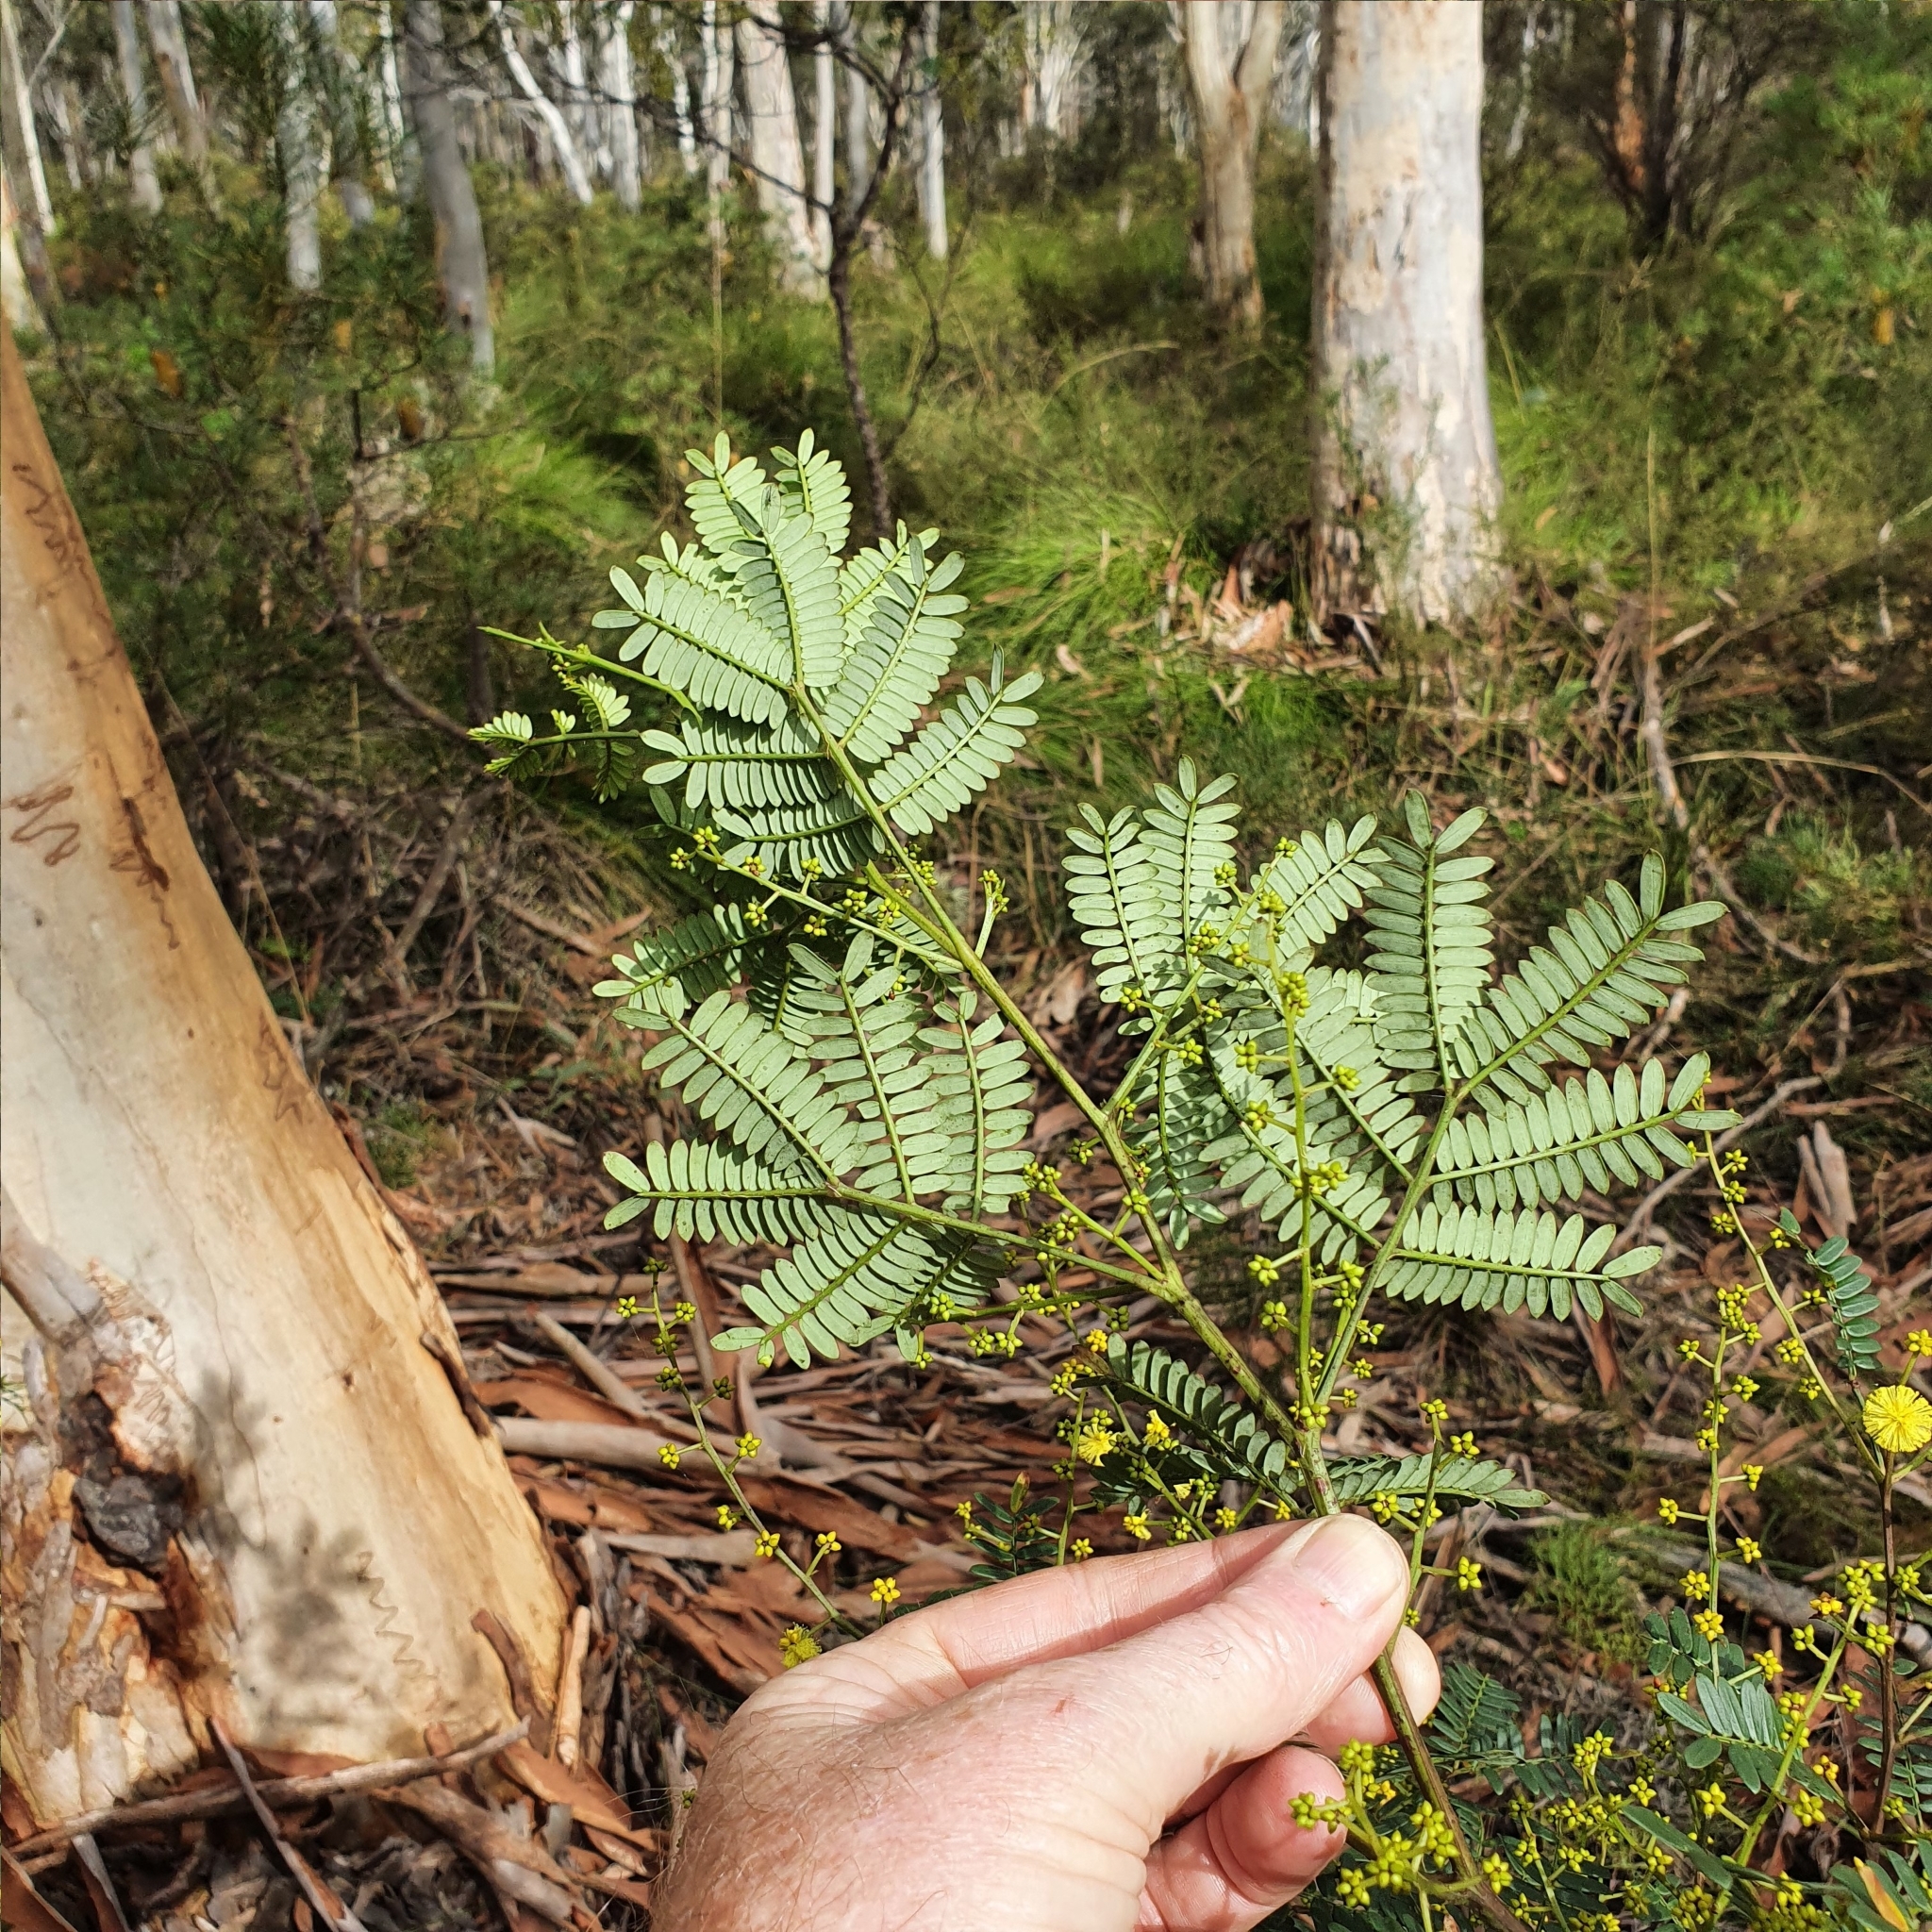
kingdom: Plantae
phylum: Tracheophyta
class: Magnoliopsida
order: Fabales
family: Fabaceae
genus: Acacia
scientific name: Acacia terminalis
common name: Cedar wattle
